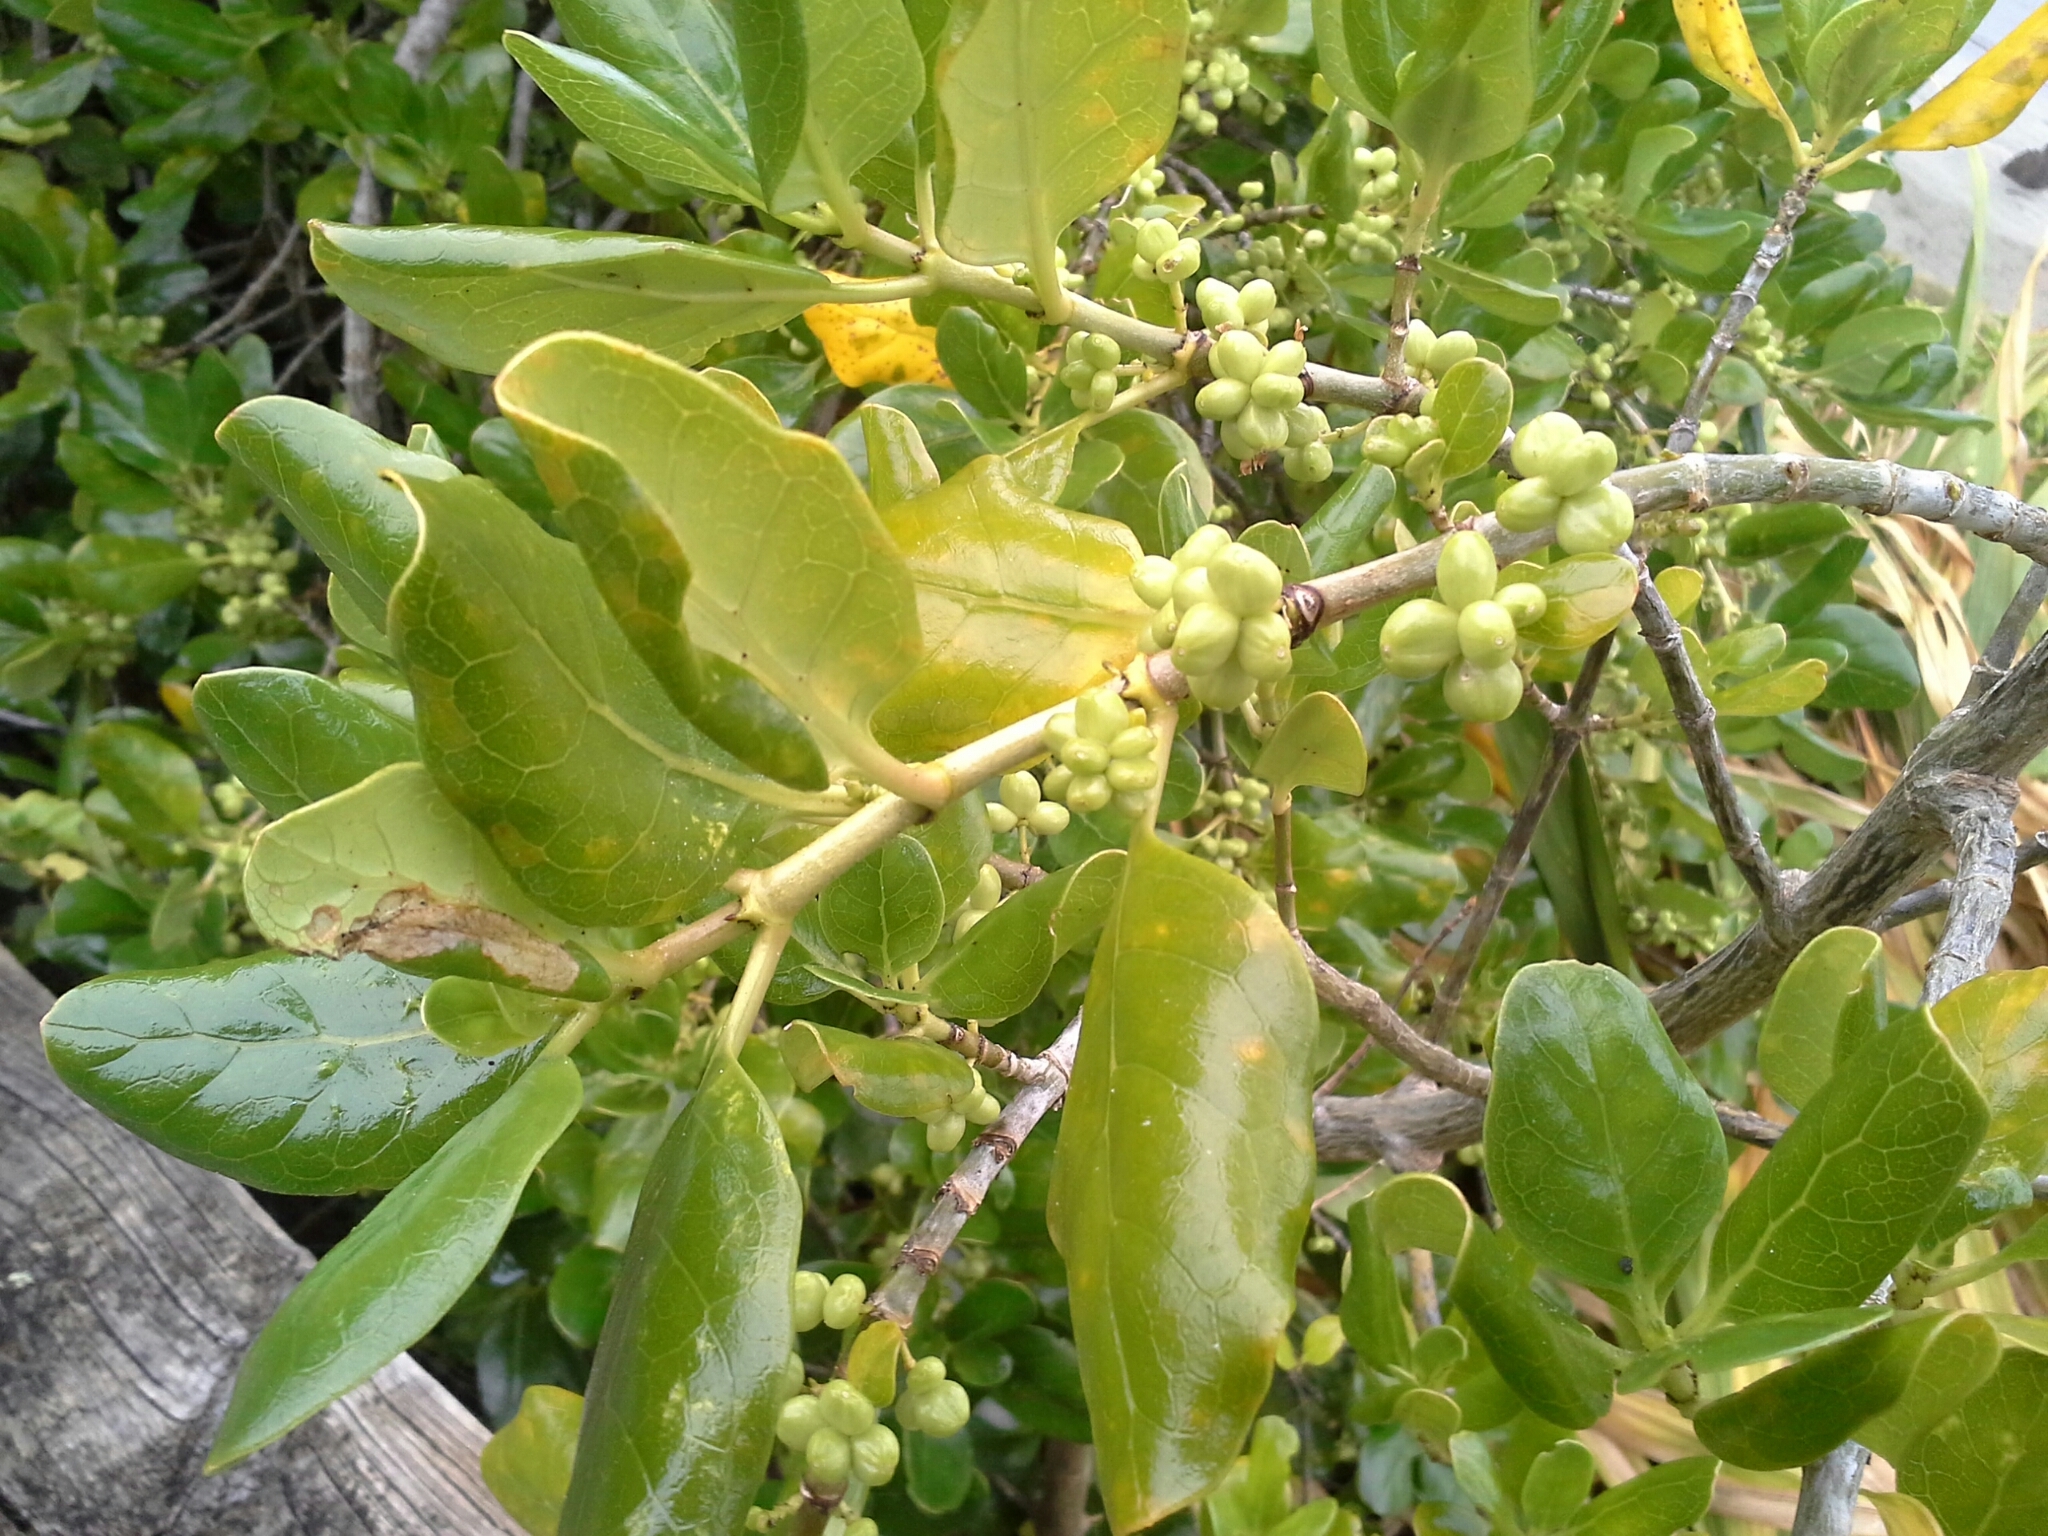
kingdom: Plantae
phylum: Tracheophyta
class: Magnoliopsida
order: Gentianales
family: Rubiaceae
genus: Coprosma
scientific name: Coprosma repens
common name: Tree bedstraw
